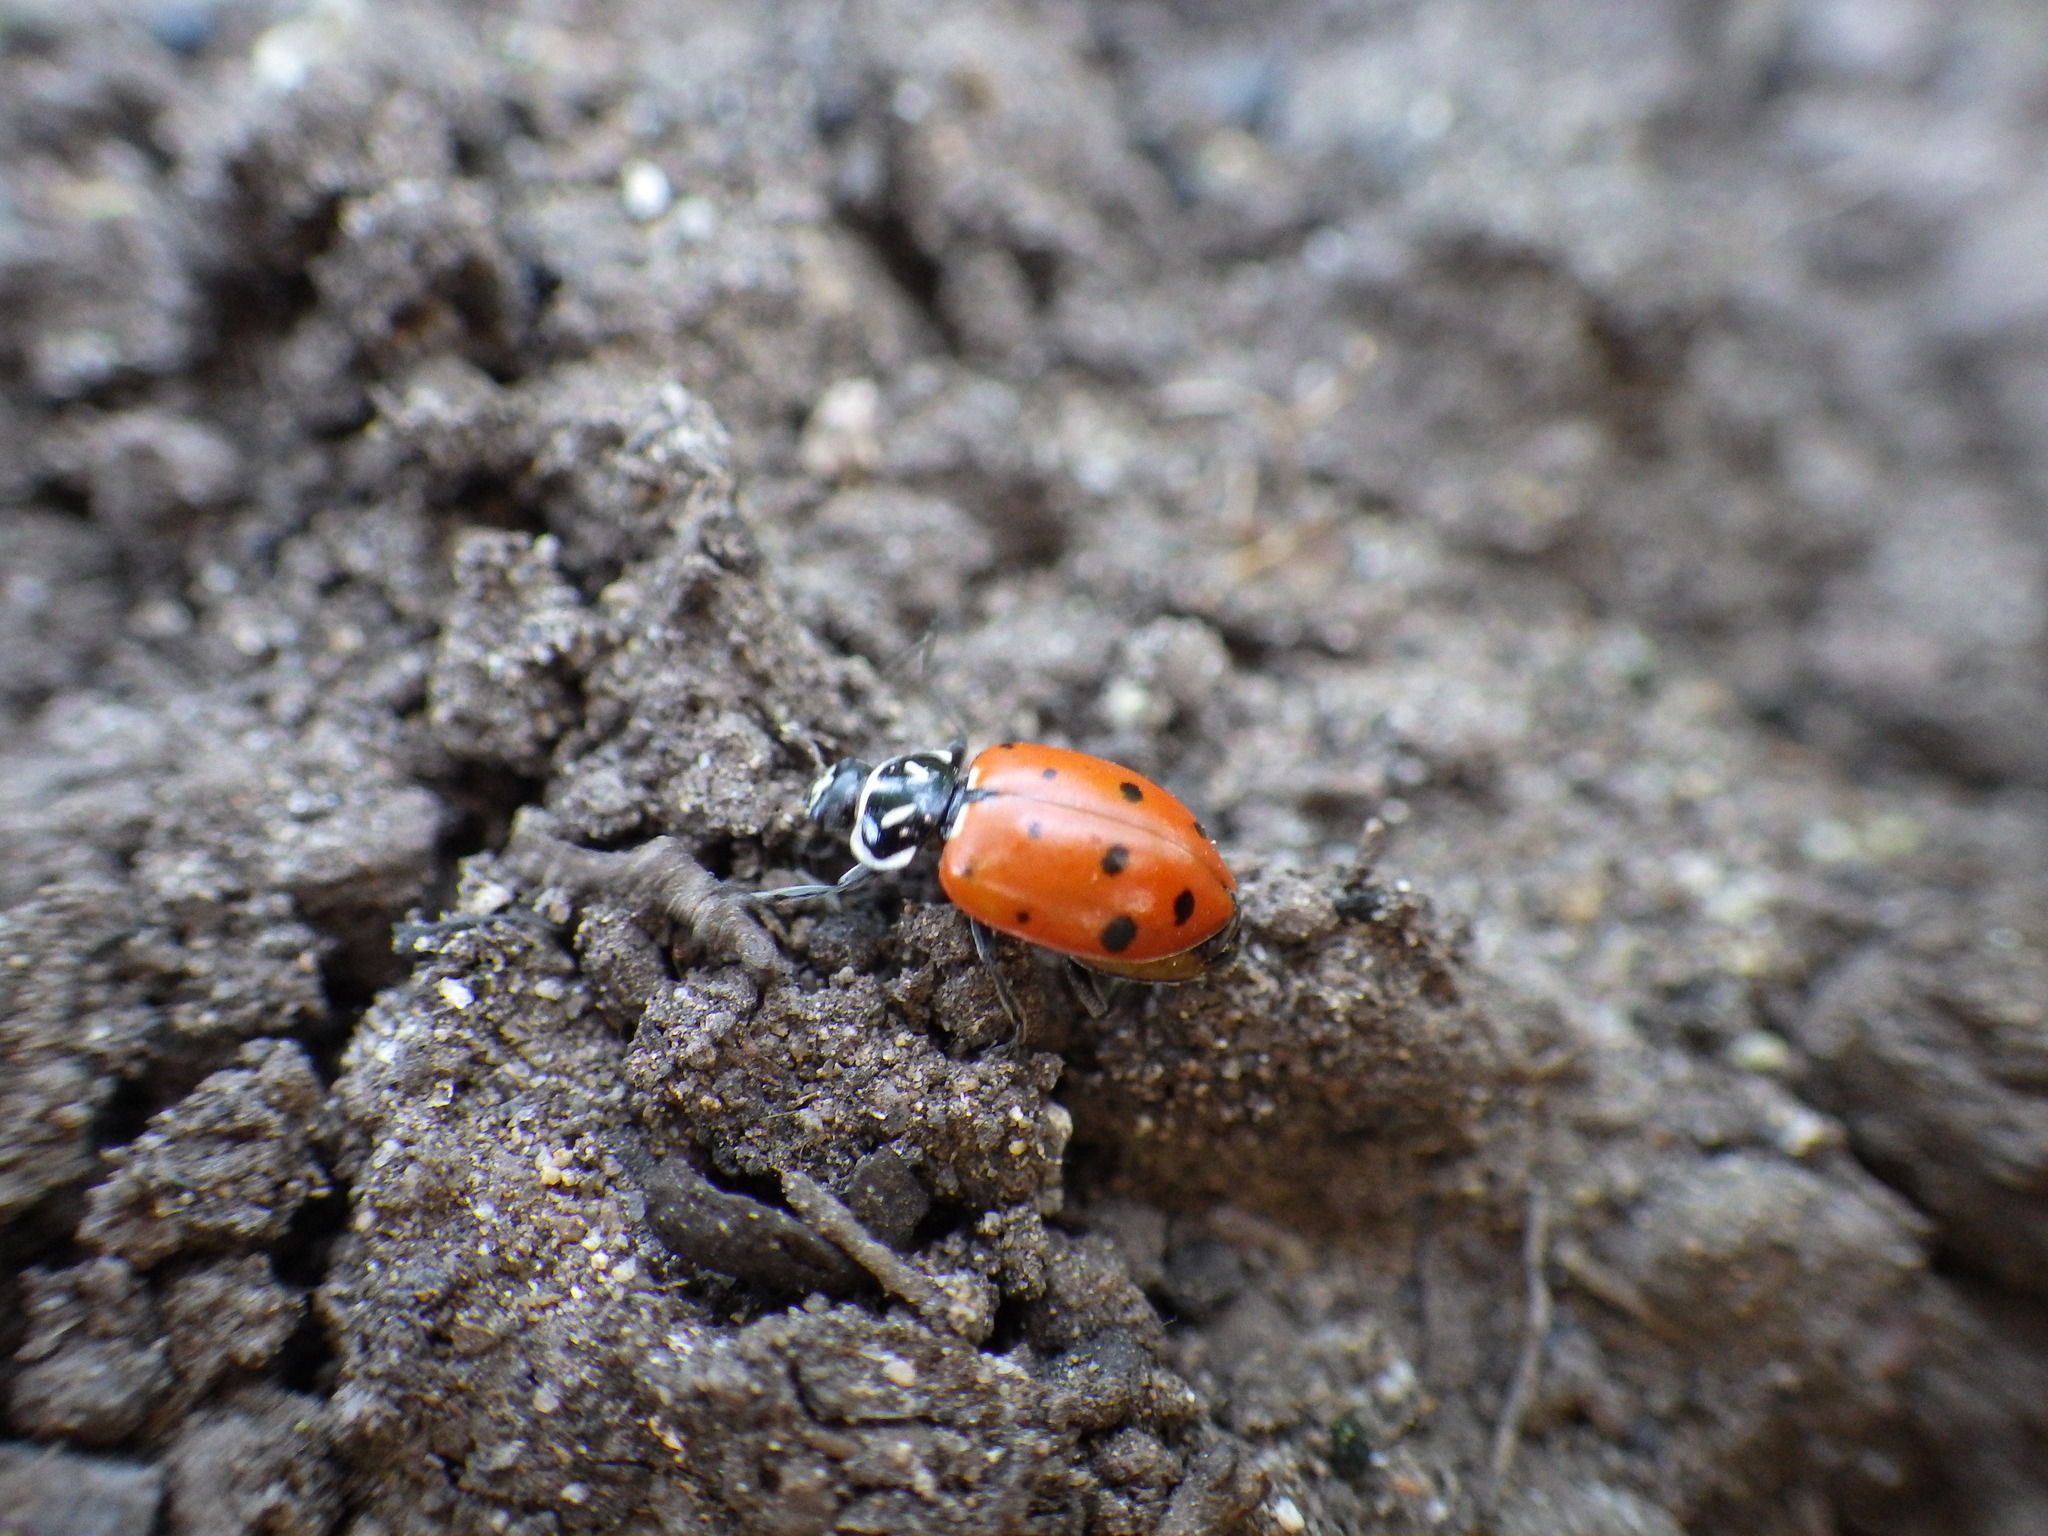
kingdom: Animalia
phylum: Arthropoda
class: Insecta
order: Coleoptera
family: Coccinellidae
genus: Hippodamia
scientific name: Hippodamia convergens
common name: Convergent lady beetle
